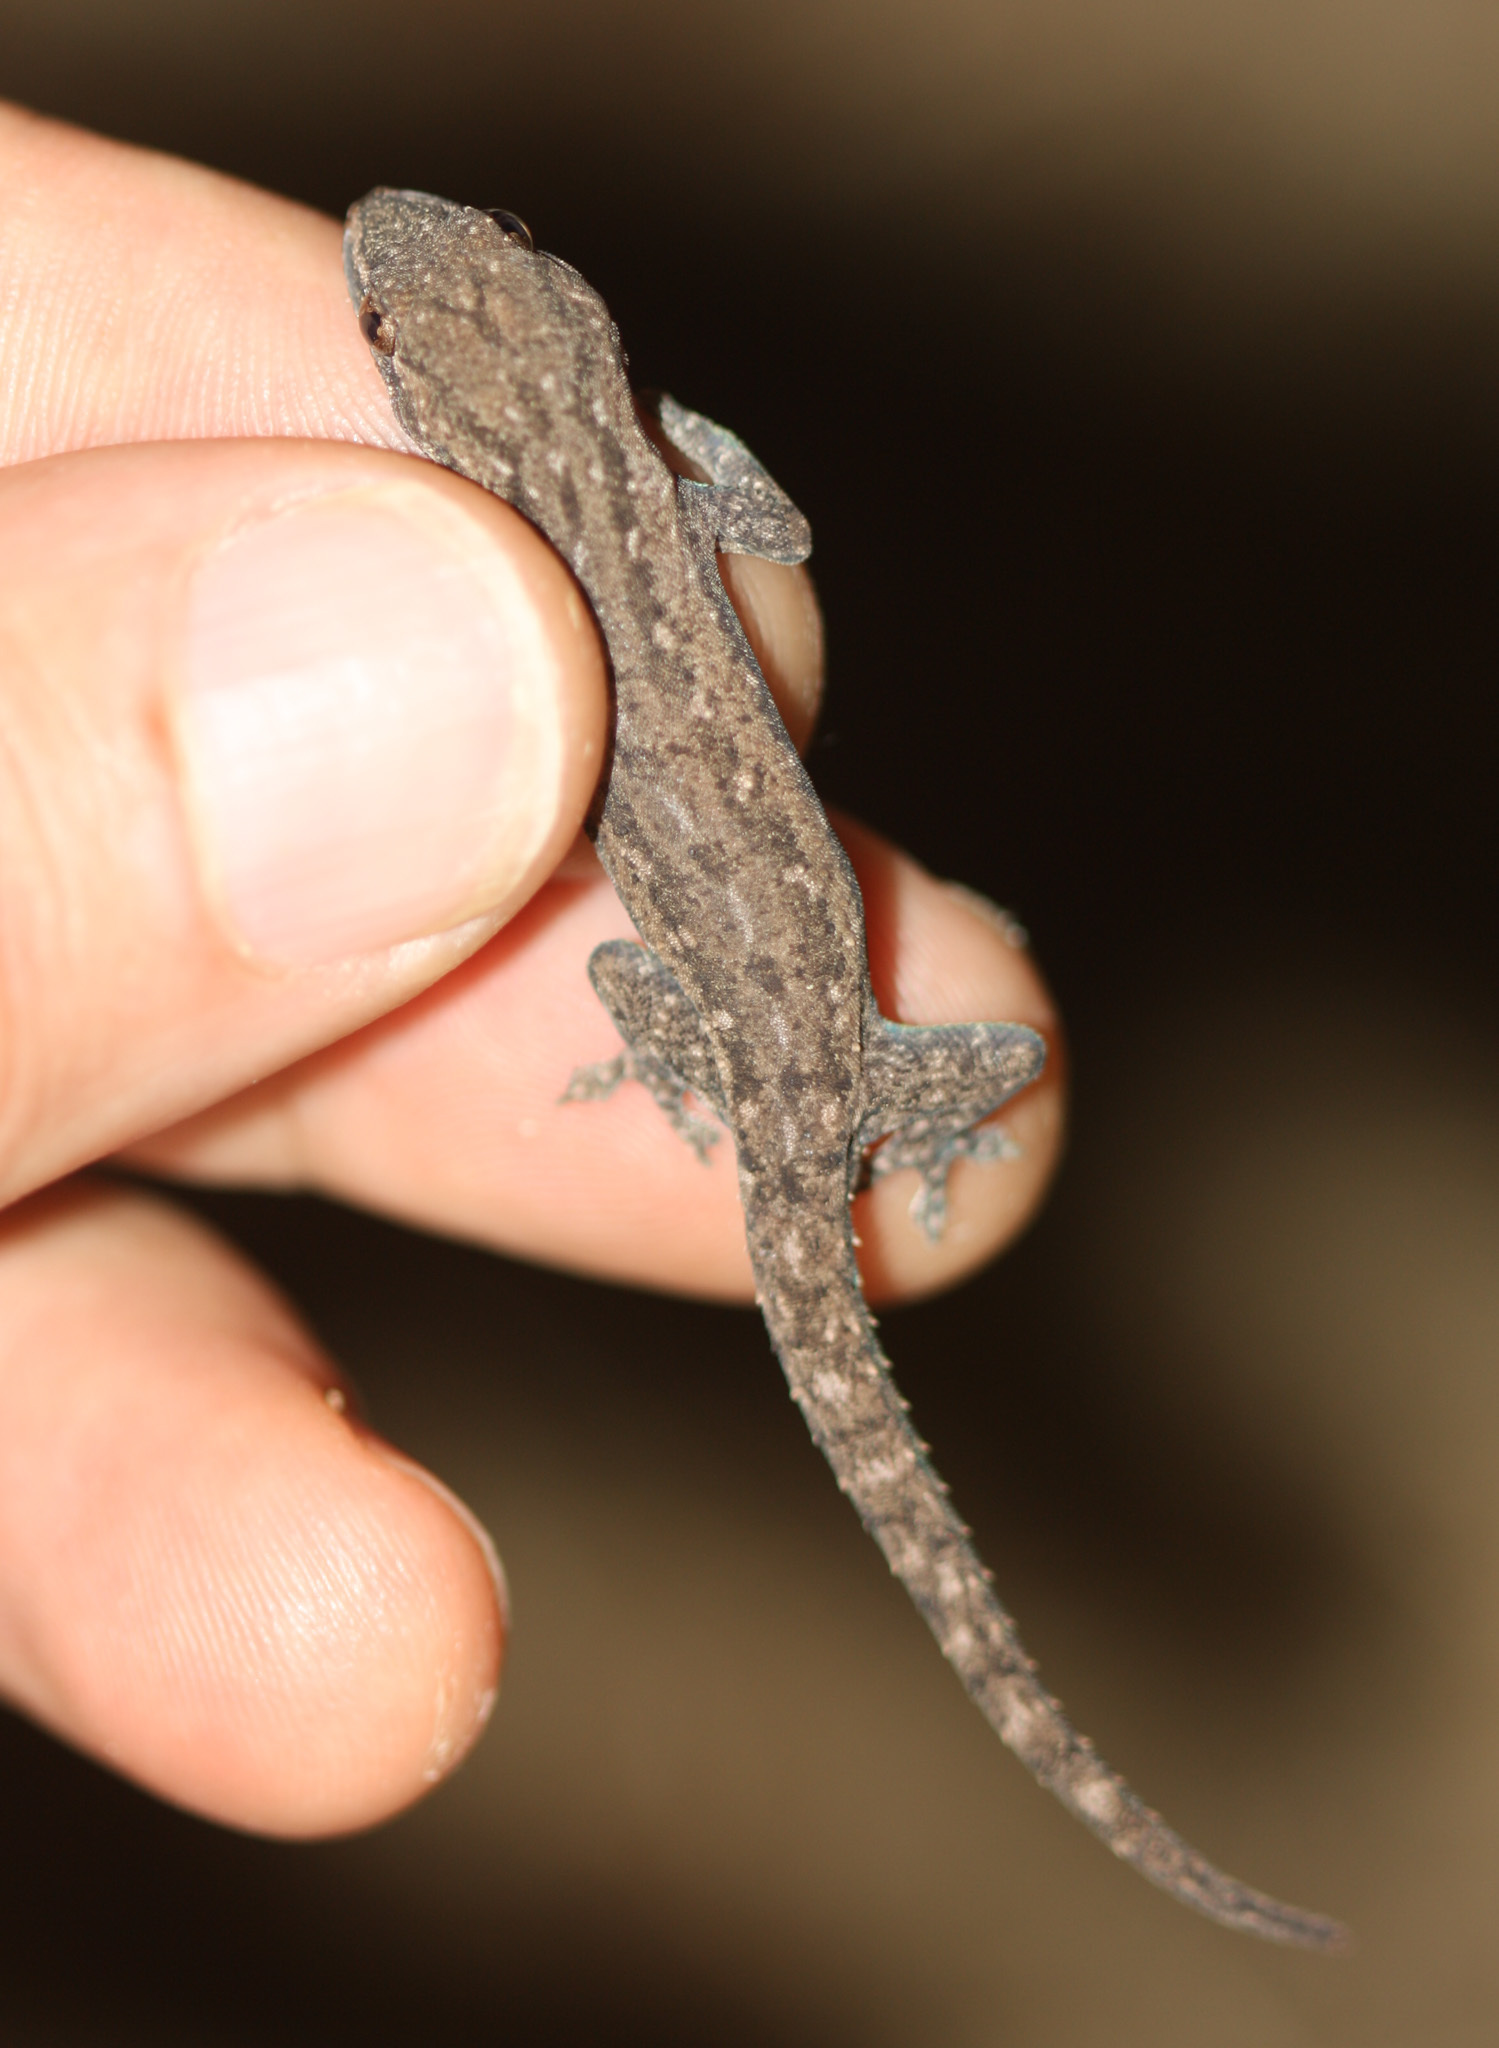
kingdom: Animalia
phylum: Chordata
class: Squamata
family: Gekkonidae
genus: Hemidactylus
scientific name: Hemidactylus frenatus
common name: Common house gecko
